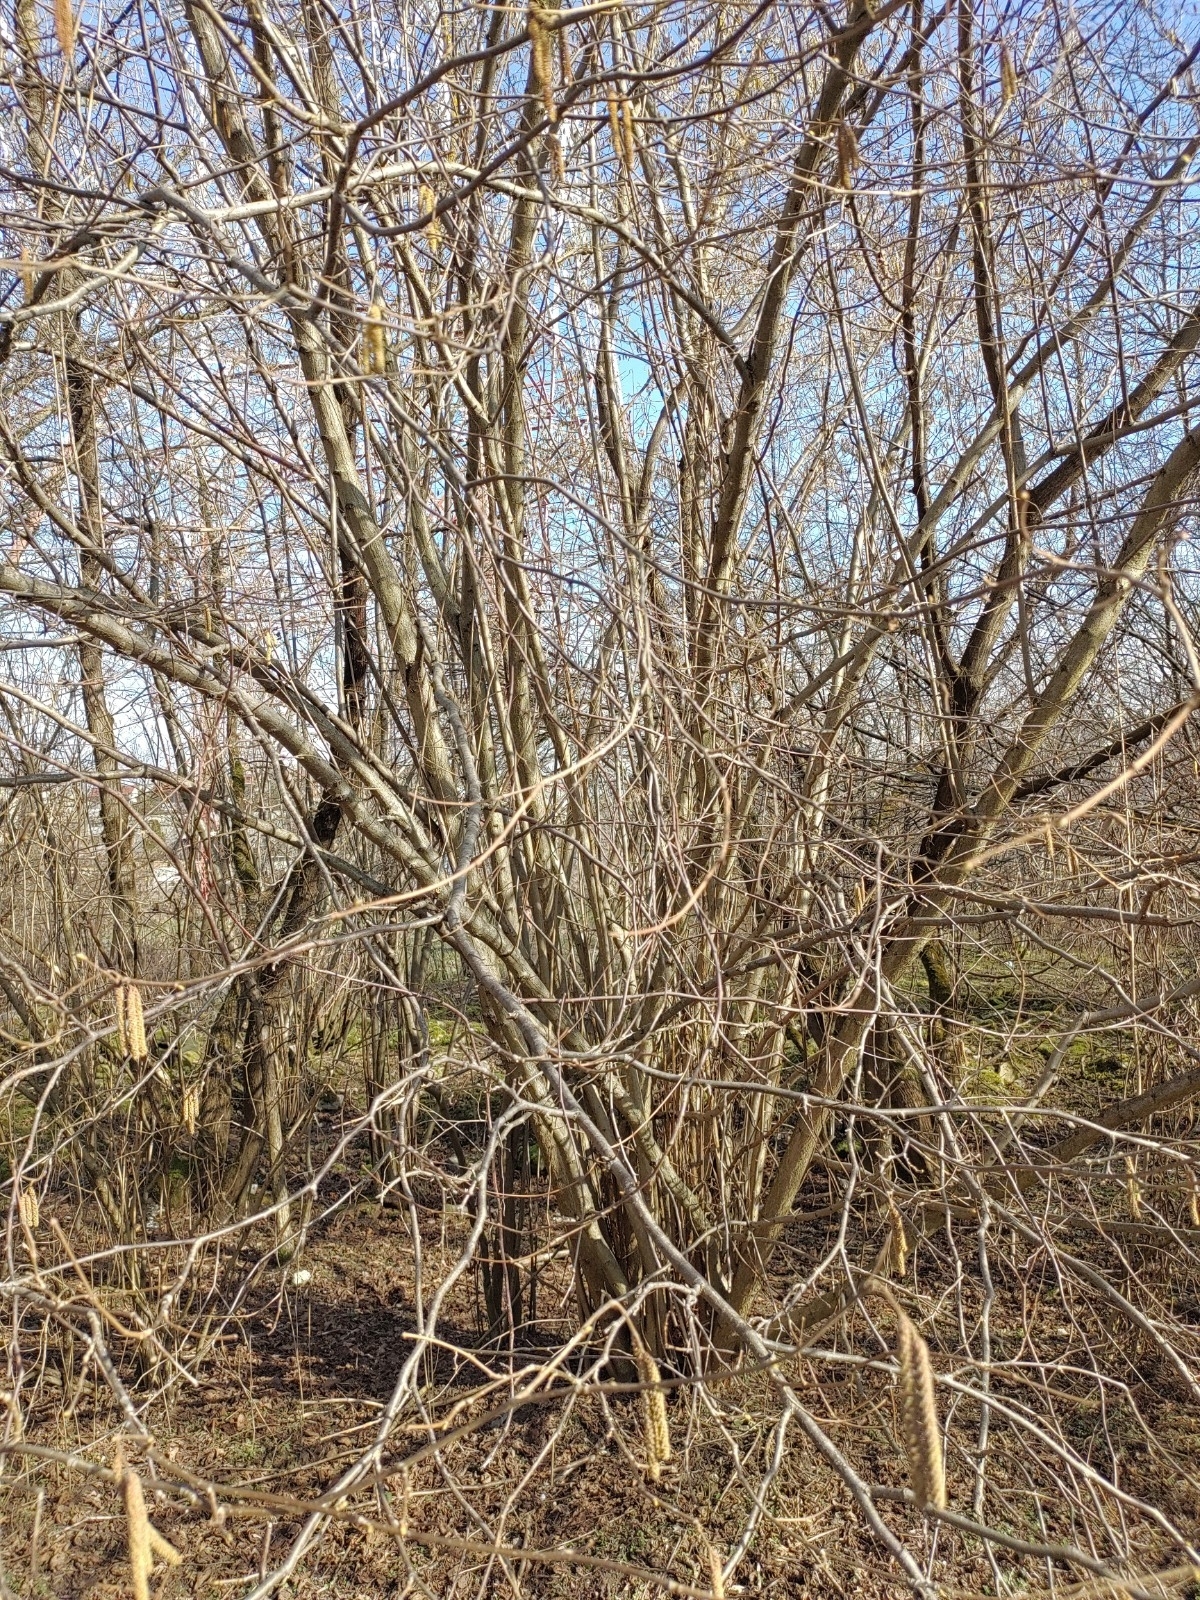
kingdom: Plantae
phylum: Tracheophyta
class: Magnoliopsida
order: Fagales
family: Betulaceae
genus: Corylus
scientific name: Corylus avellana
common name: European hazel
